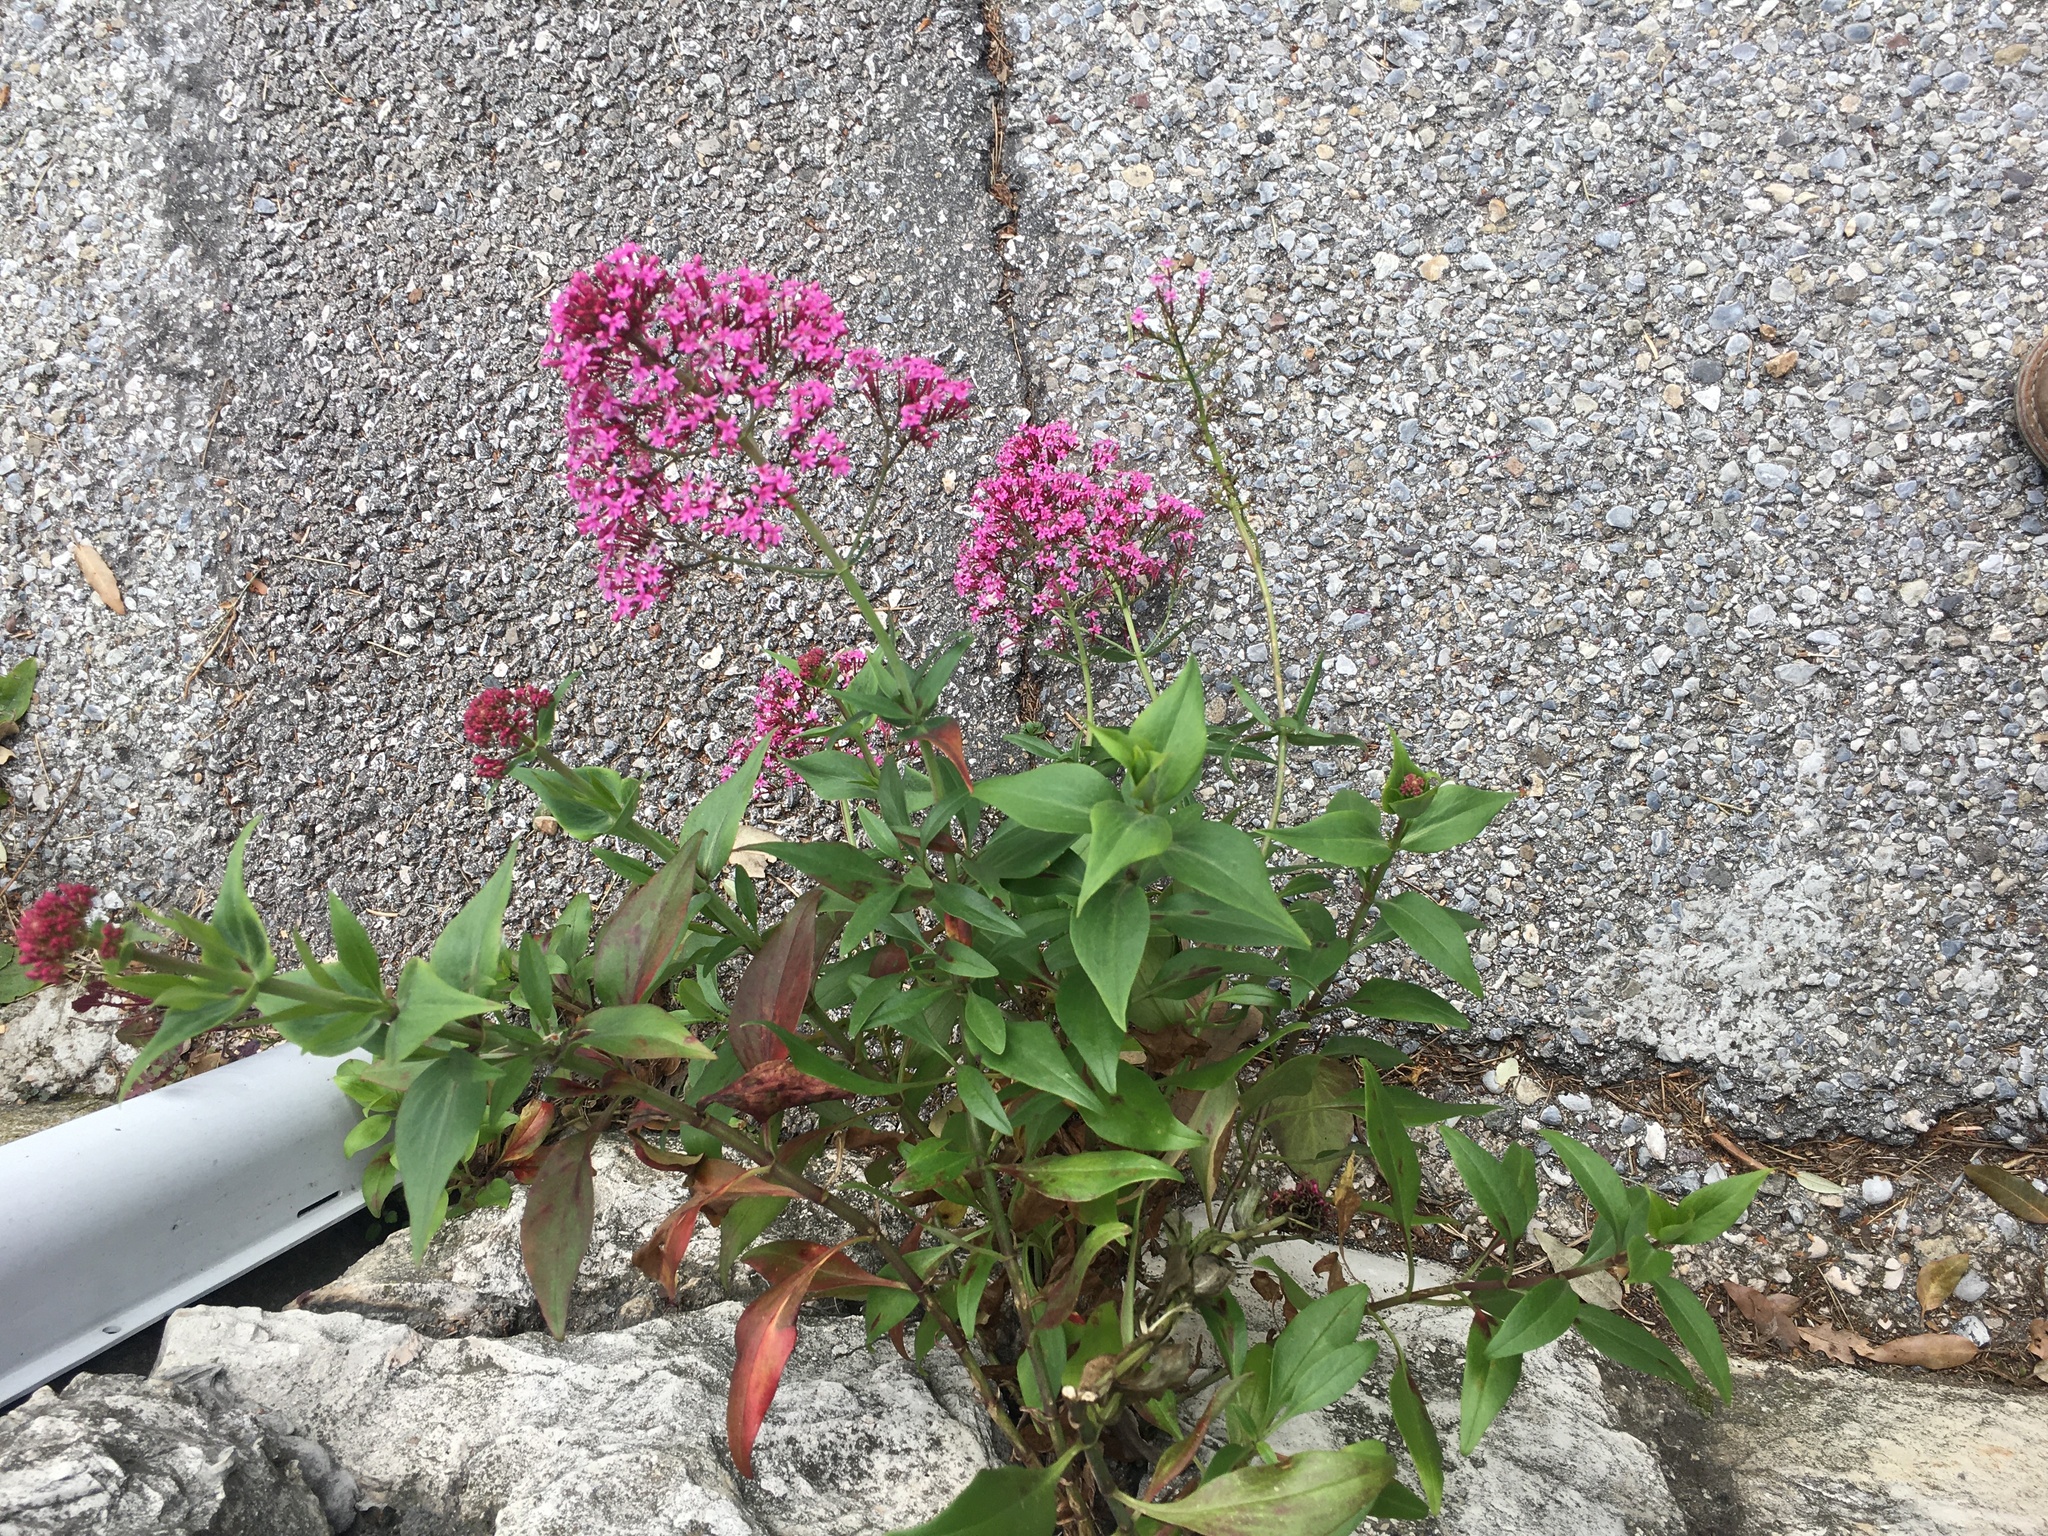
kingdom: Plantae
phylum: Tracheophyta
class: Magnoliopsida
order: Dipsacales
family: Caprifoliaceae
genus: Centranthus
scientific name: Centranthus ruber
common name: Red valerian
